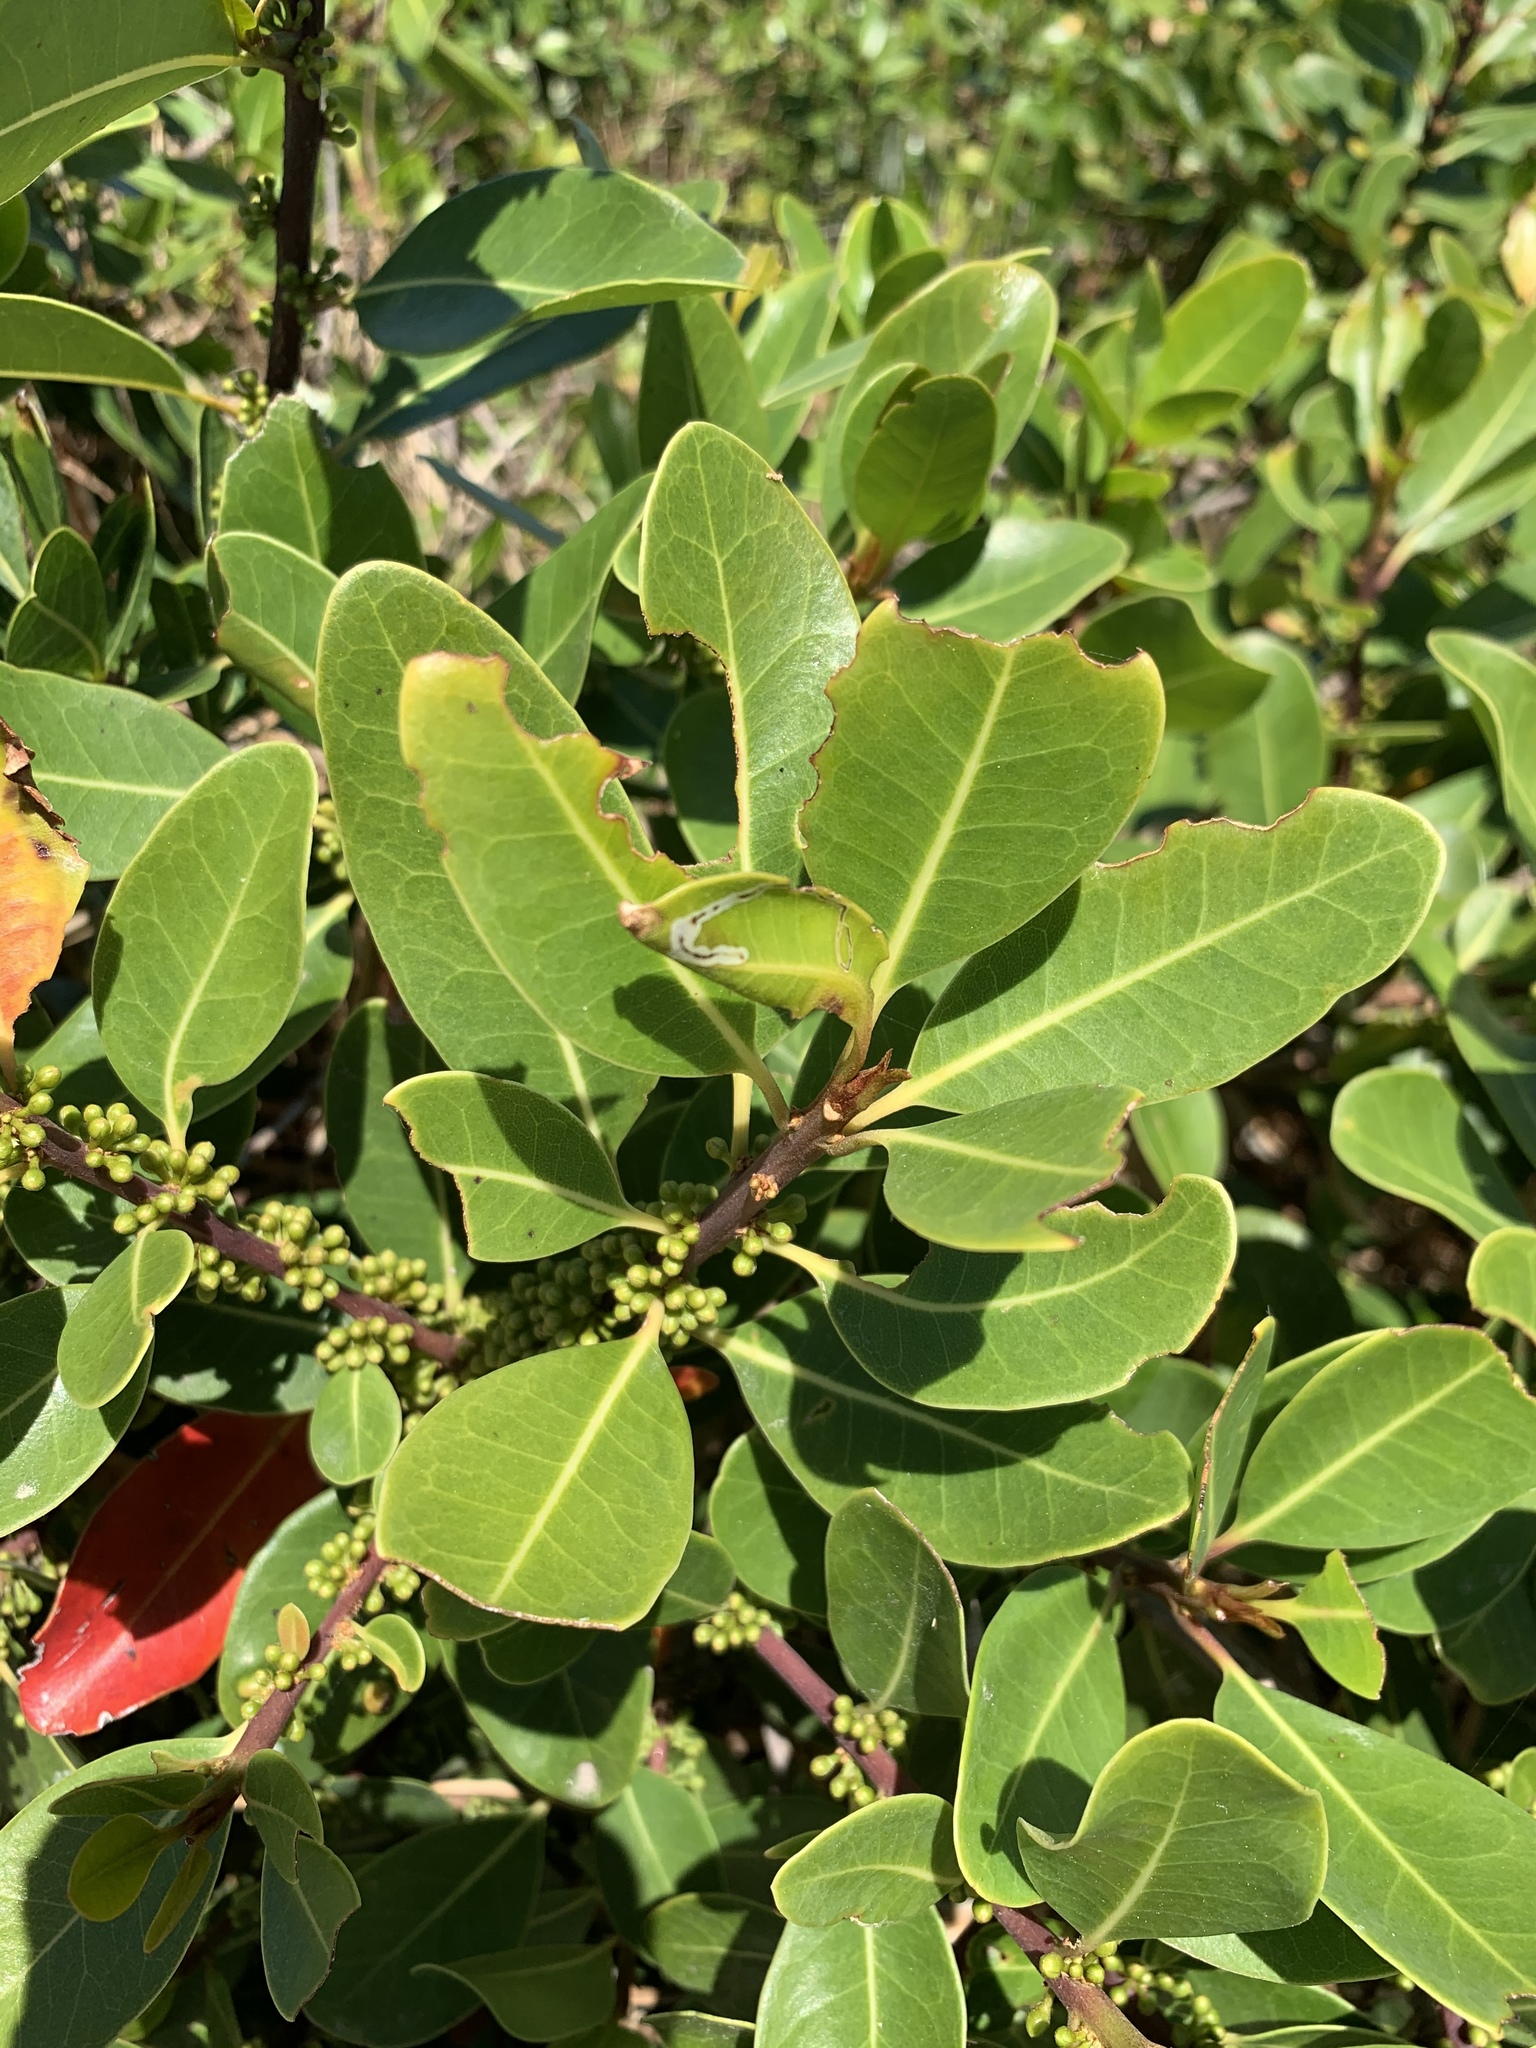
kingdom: Plantae
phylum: Tracheophyta
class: Magnoliopsida
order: Ericales
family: Sapotaceae
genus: Sideroxylon
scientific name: Sideroxylon inerme
